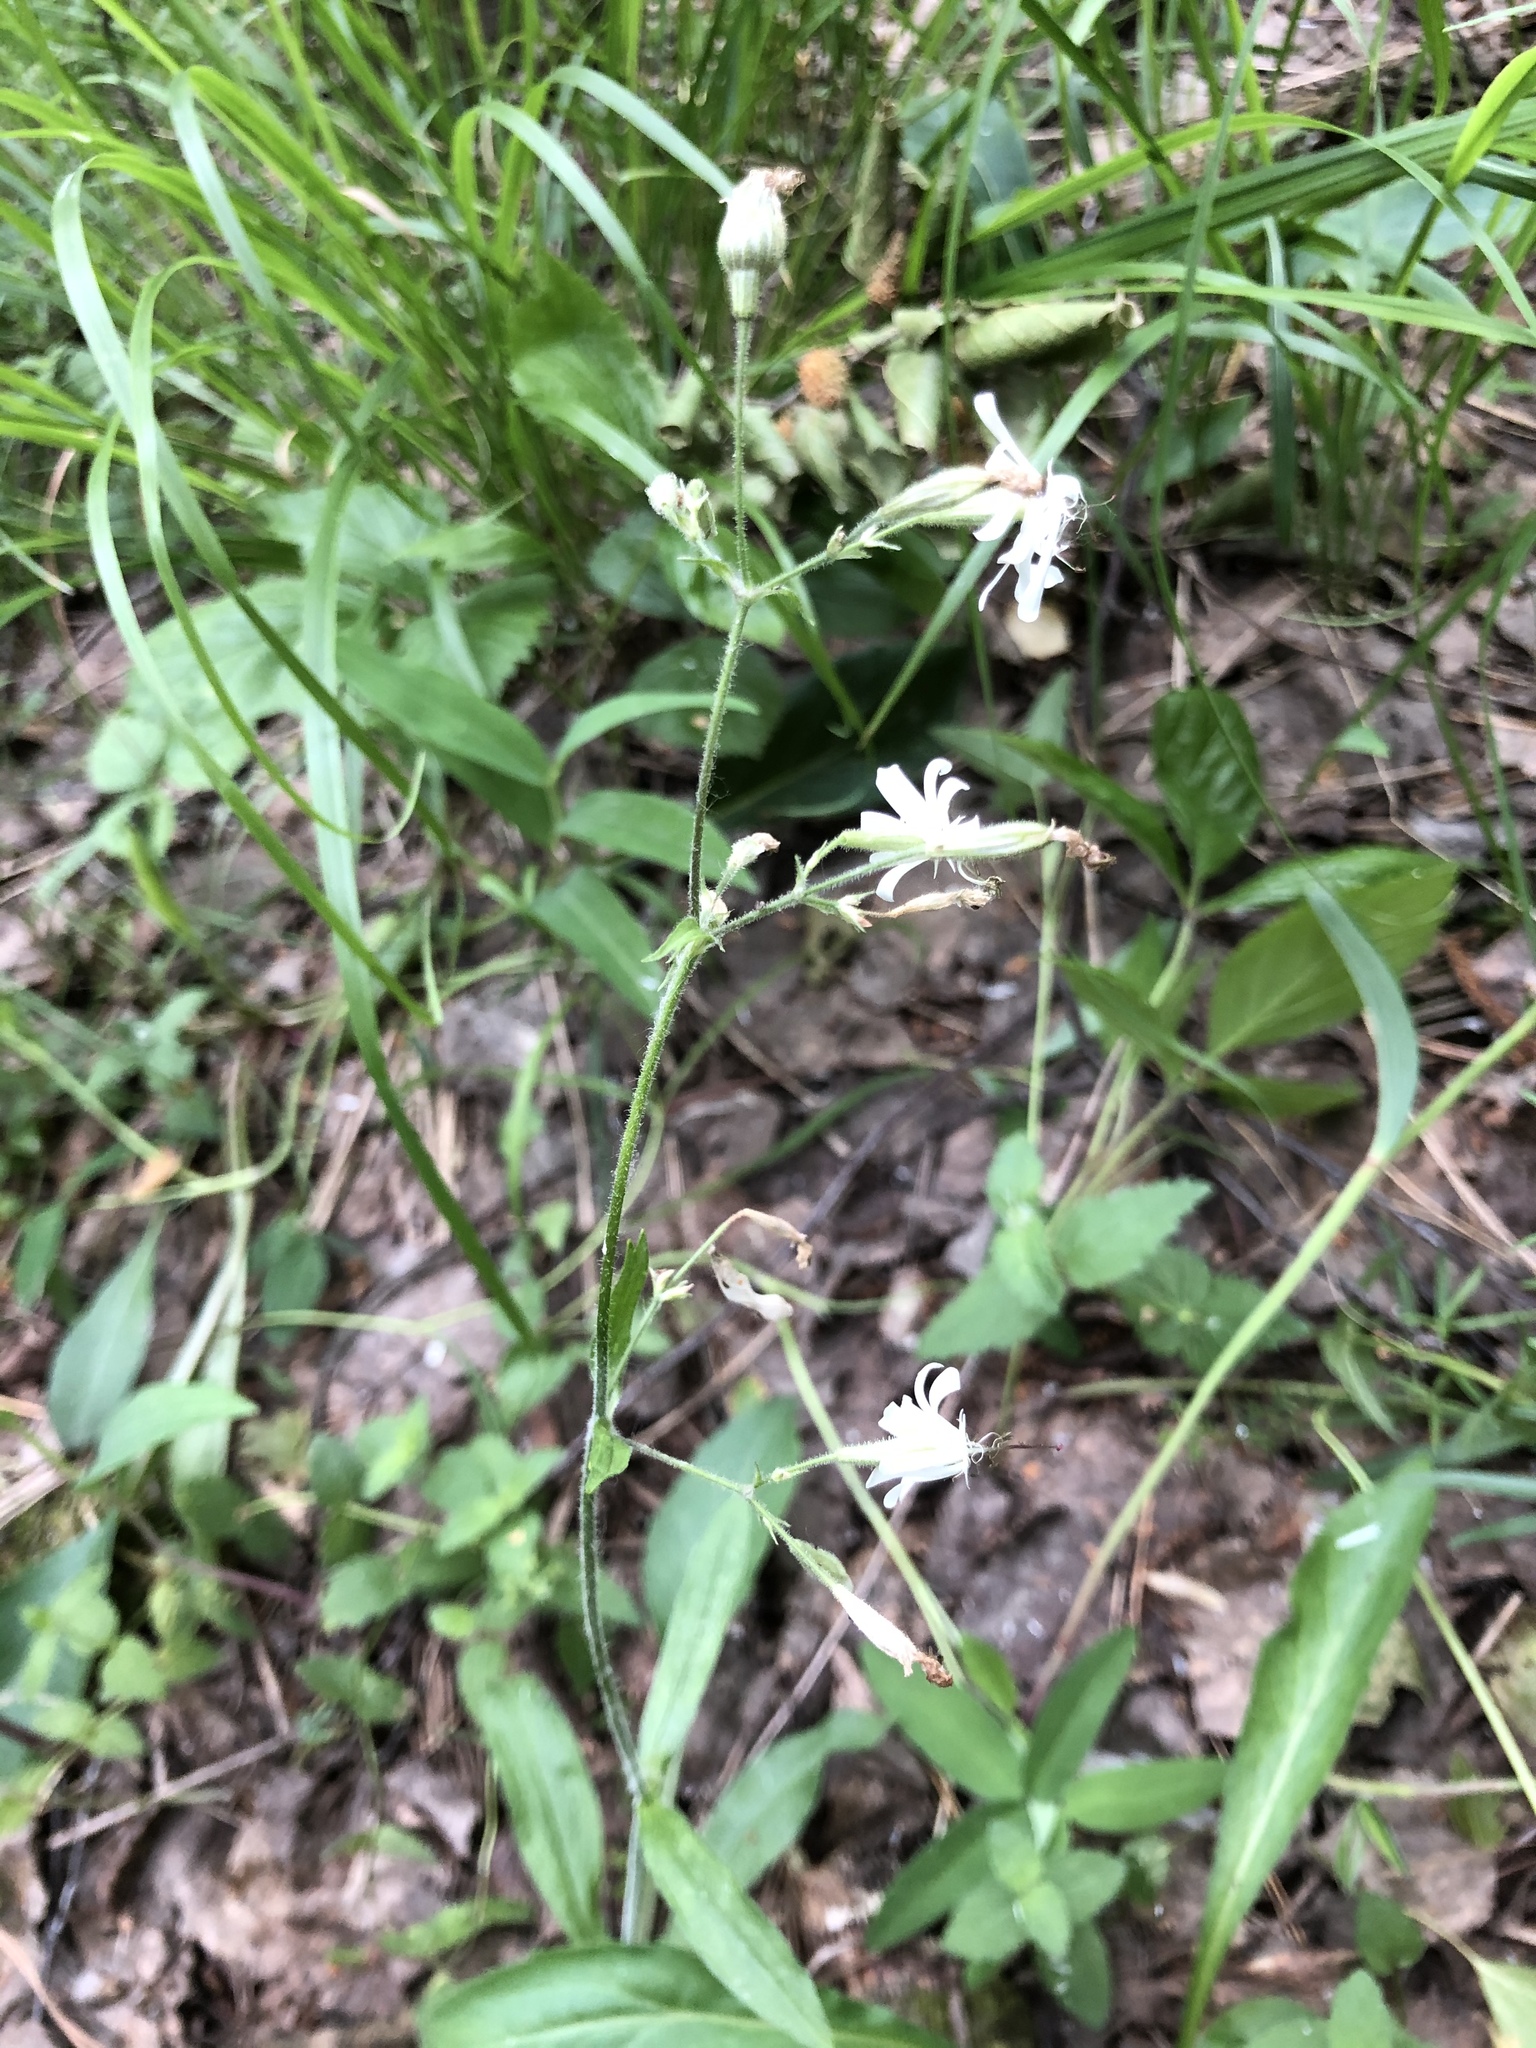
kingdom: Plantae
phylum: Tracheophyta
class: Magnoliopsida
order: Caryophyllales
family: Caryophyllaceae
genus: Silene
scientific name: Silene nutans
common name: Nottingham catchfly
